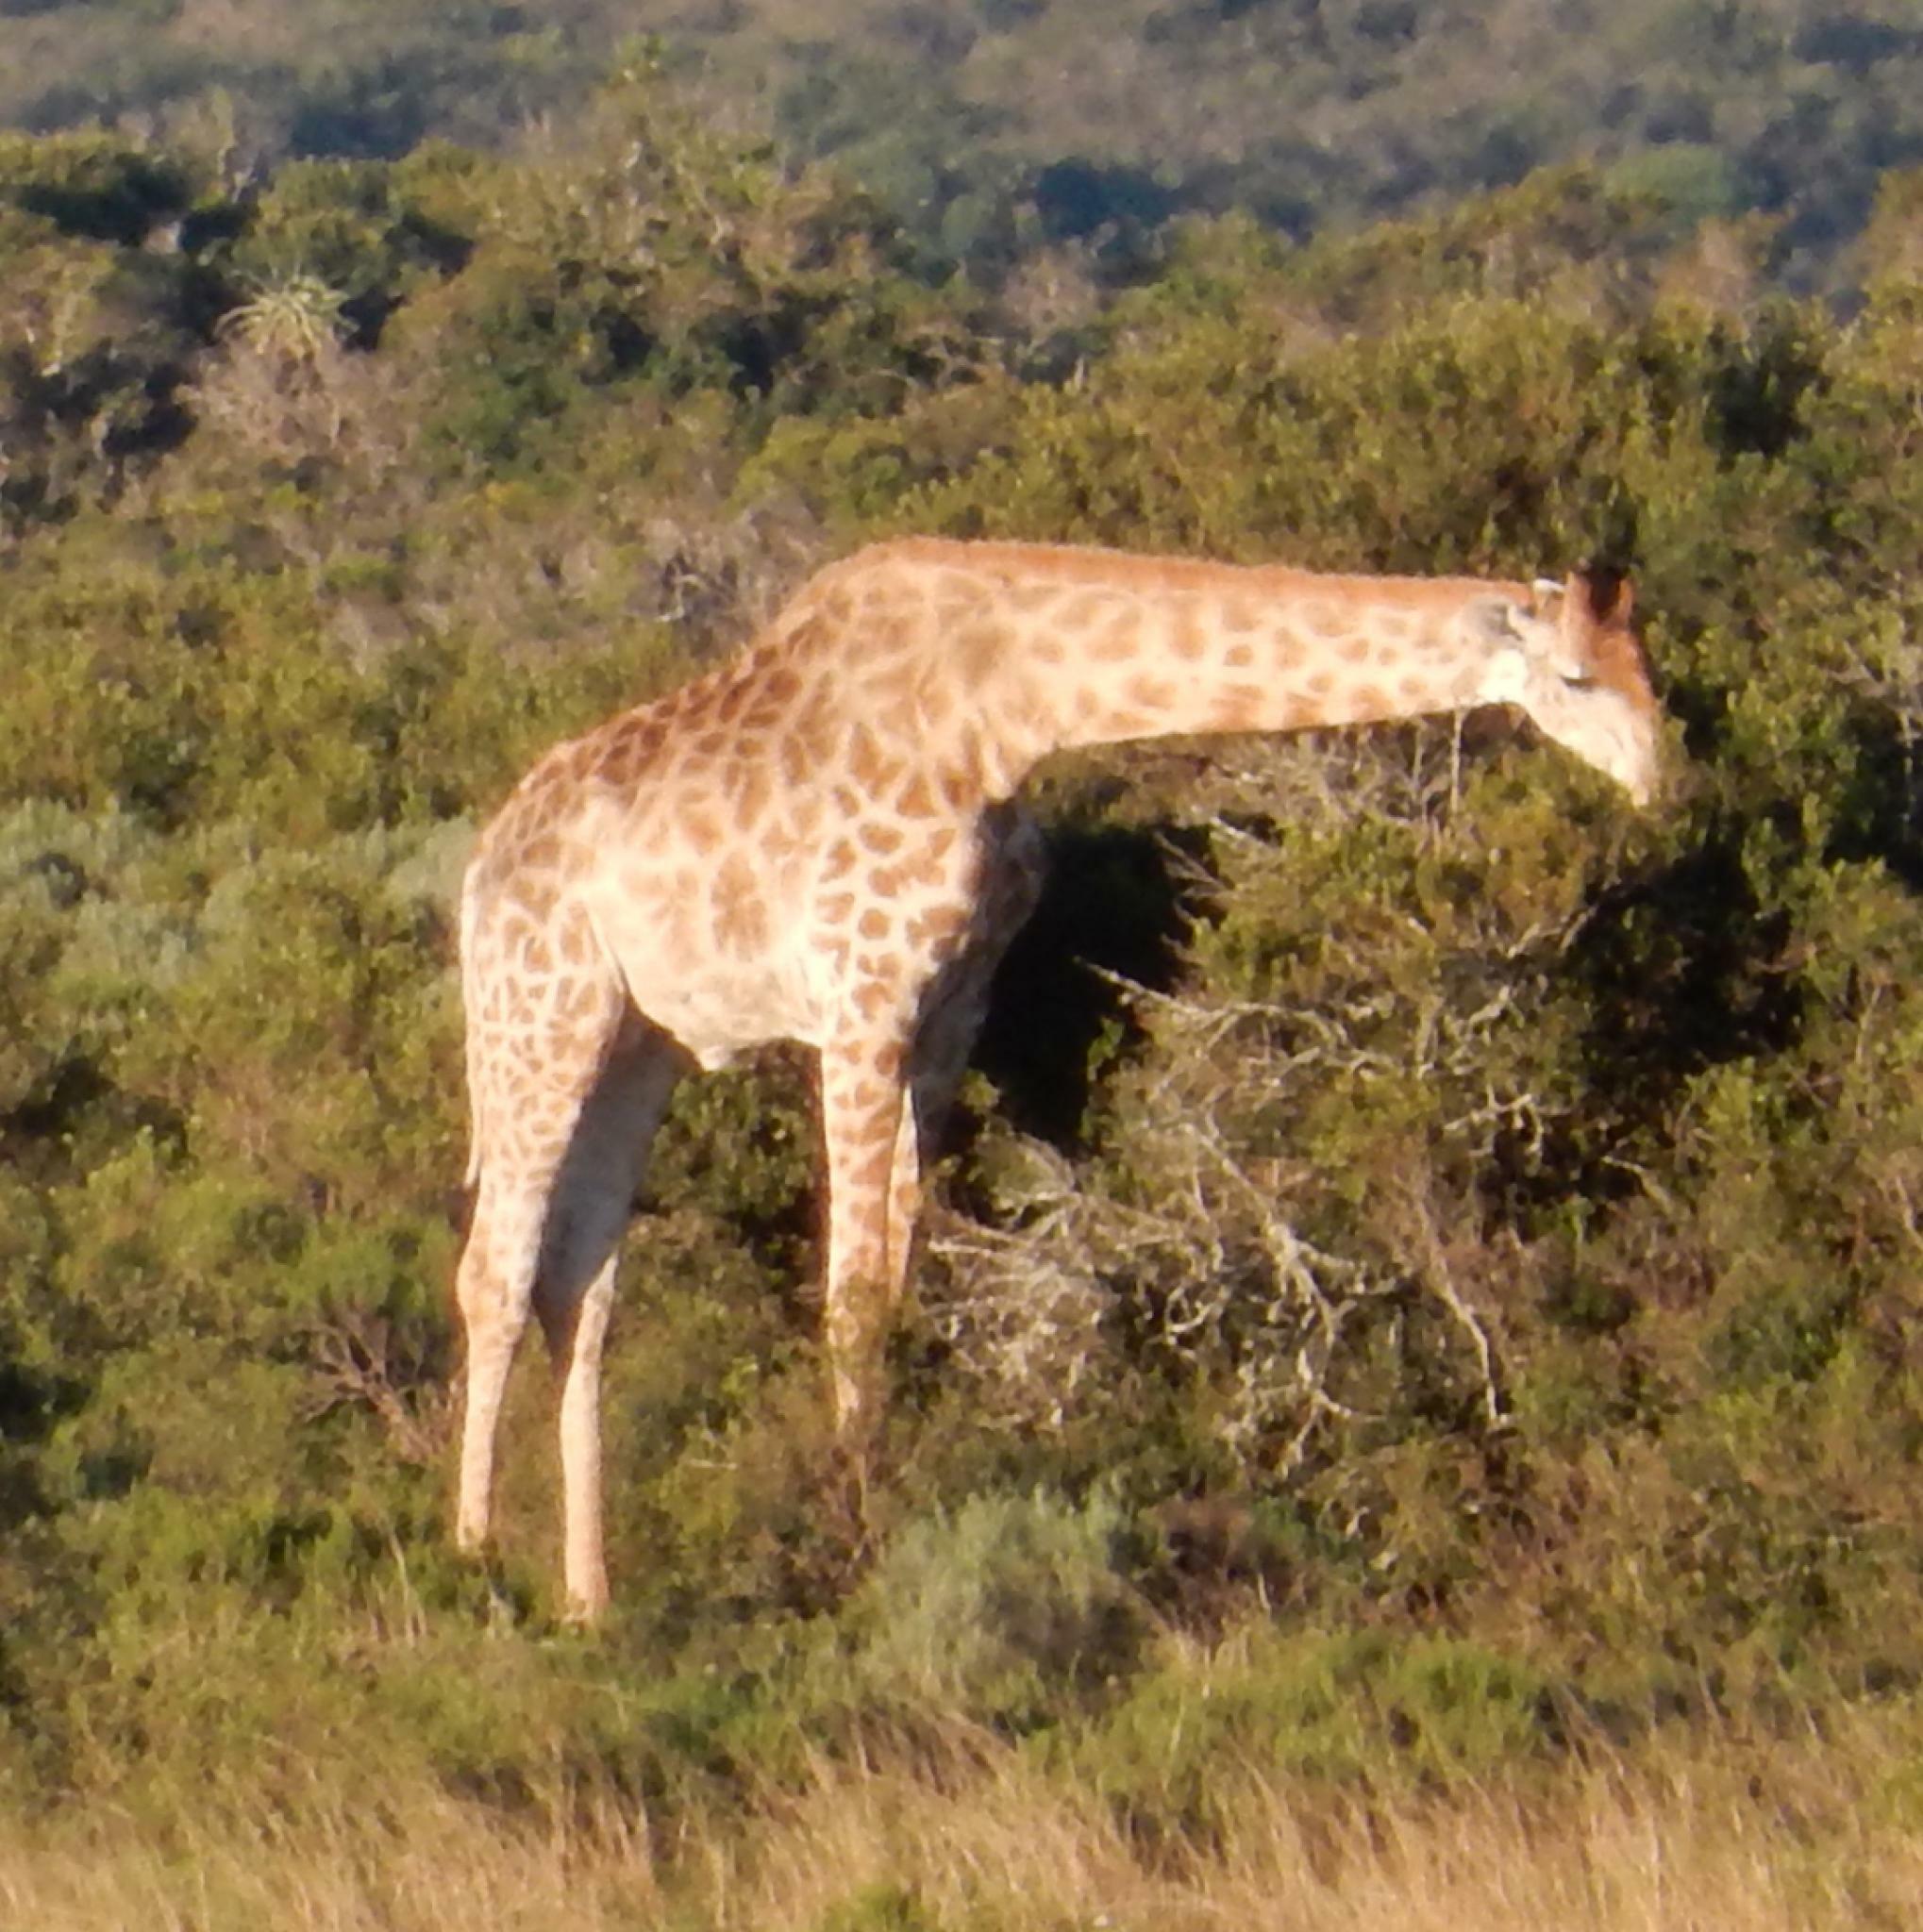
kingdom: Animalia
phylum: Chordata
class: Mammalia
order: Artiodactyla
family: Giraffidae
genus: Giraffa
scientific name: Giraffa giraffa
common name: Southern giraffe
